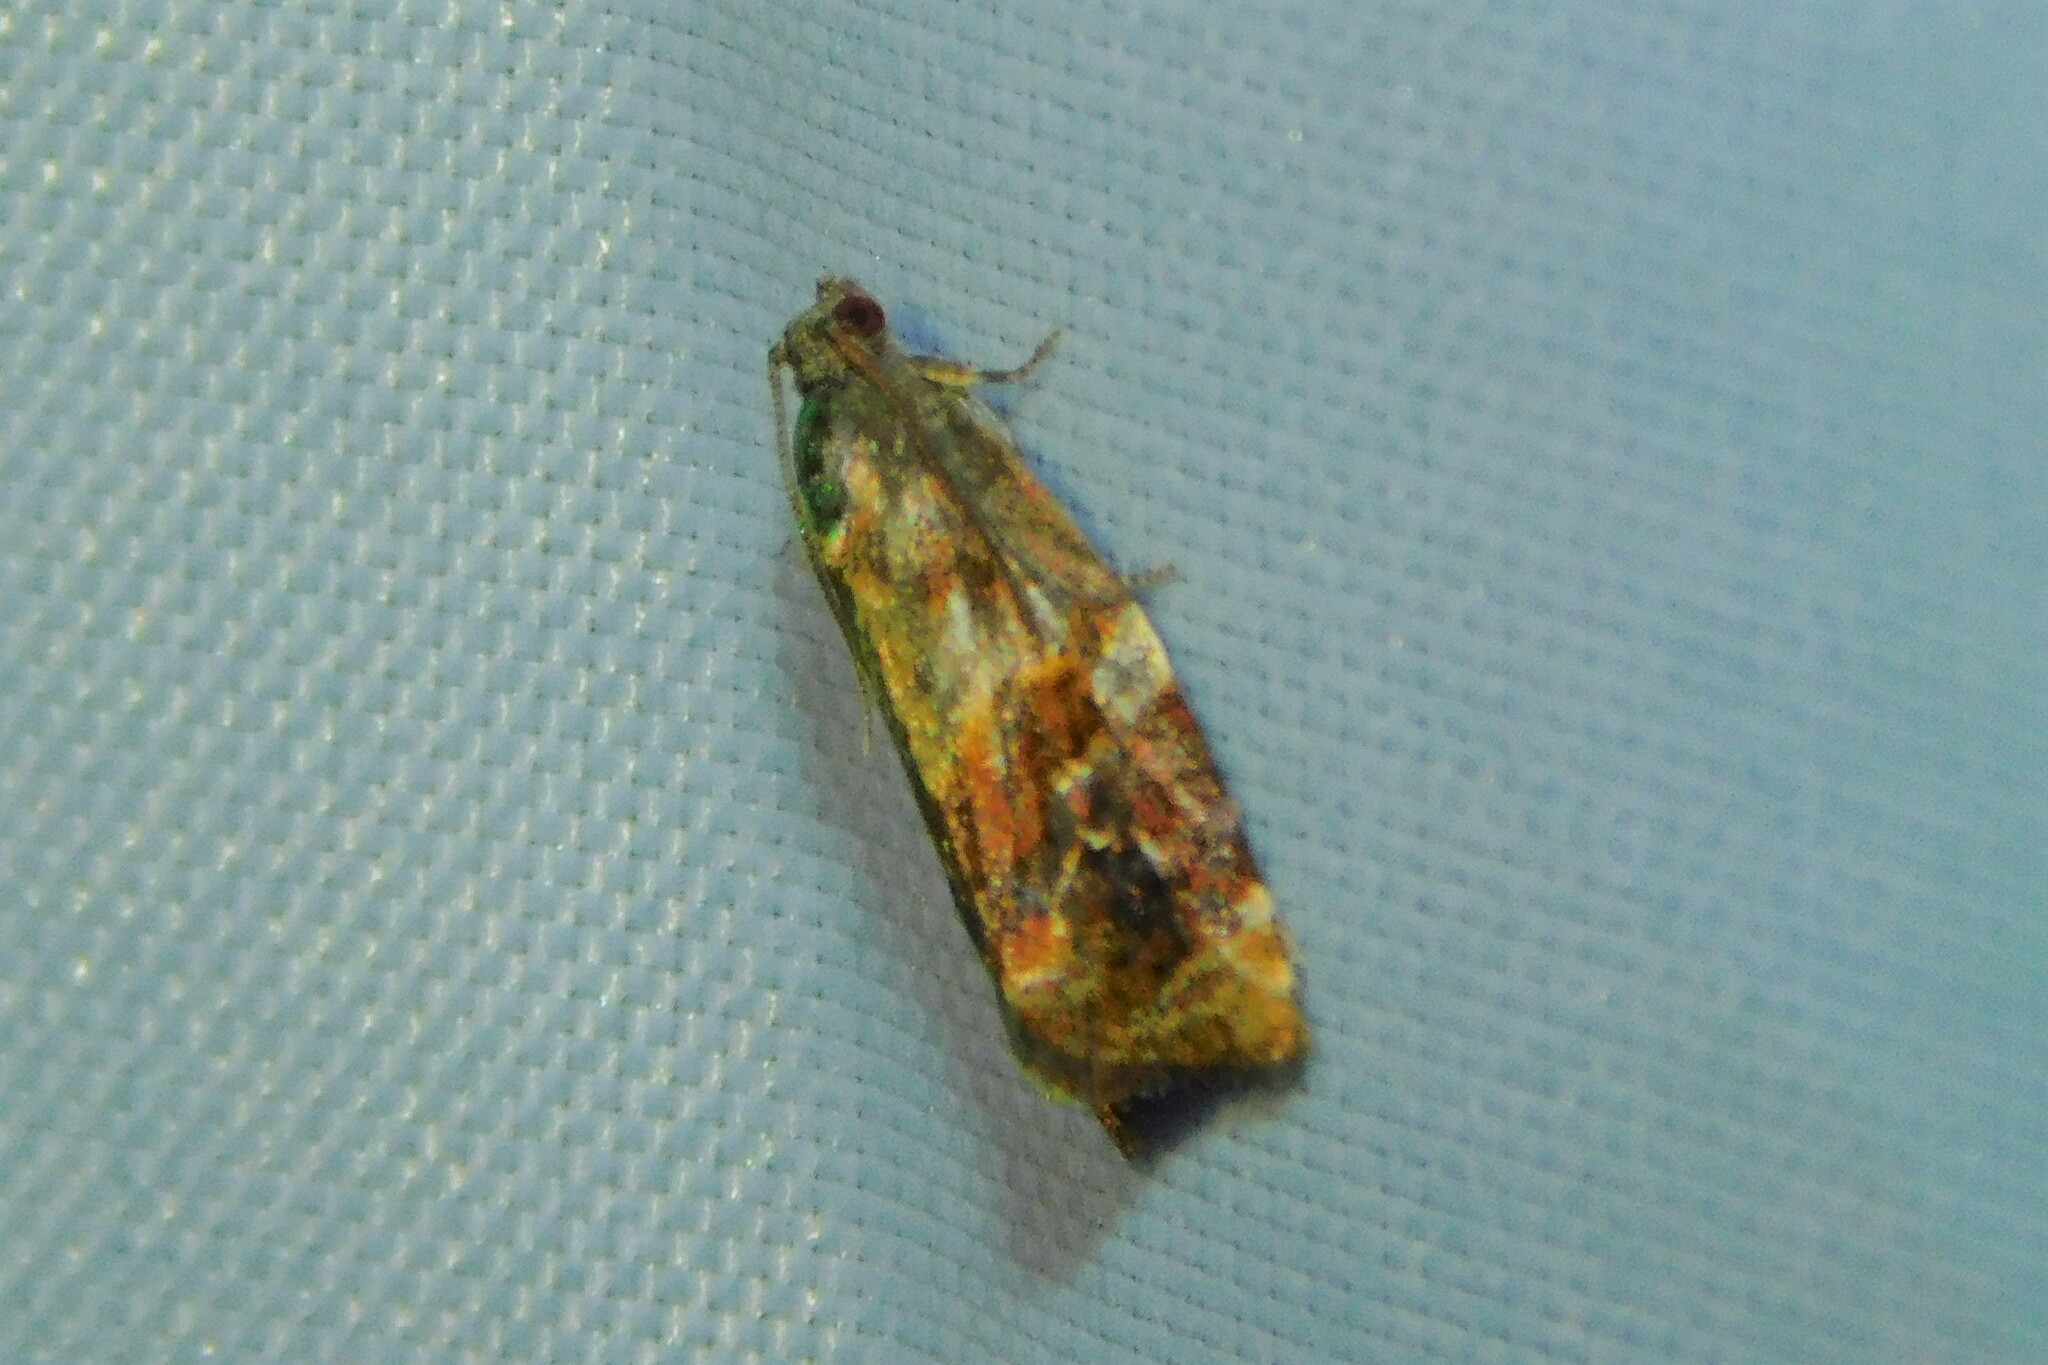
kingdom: Animalia
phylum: Arthropoda
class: Insecta
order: Lepidoptera
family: Tortricidae
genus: Ditula
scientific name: Ditula angustiorana
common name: Red-barred tortrix
